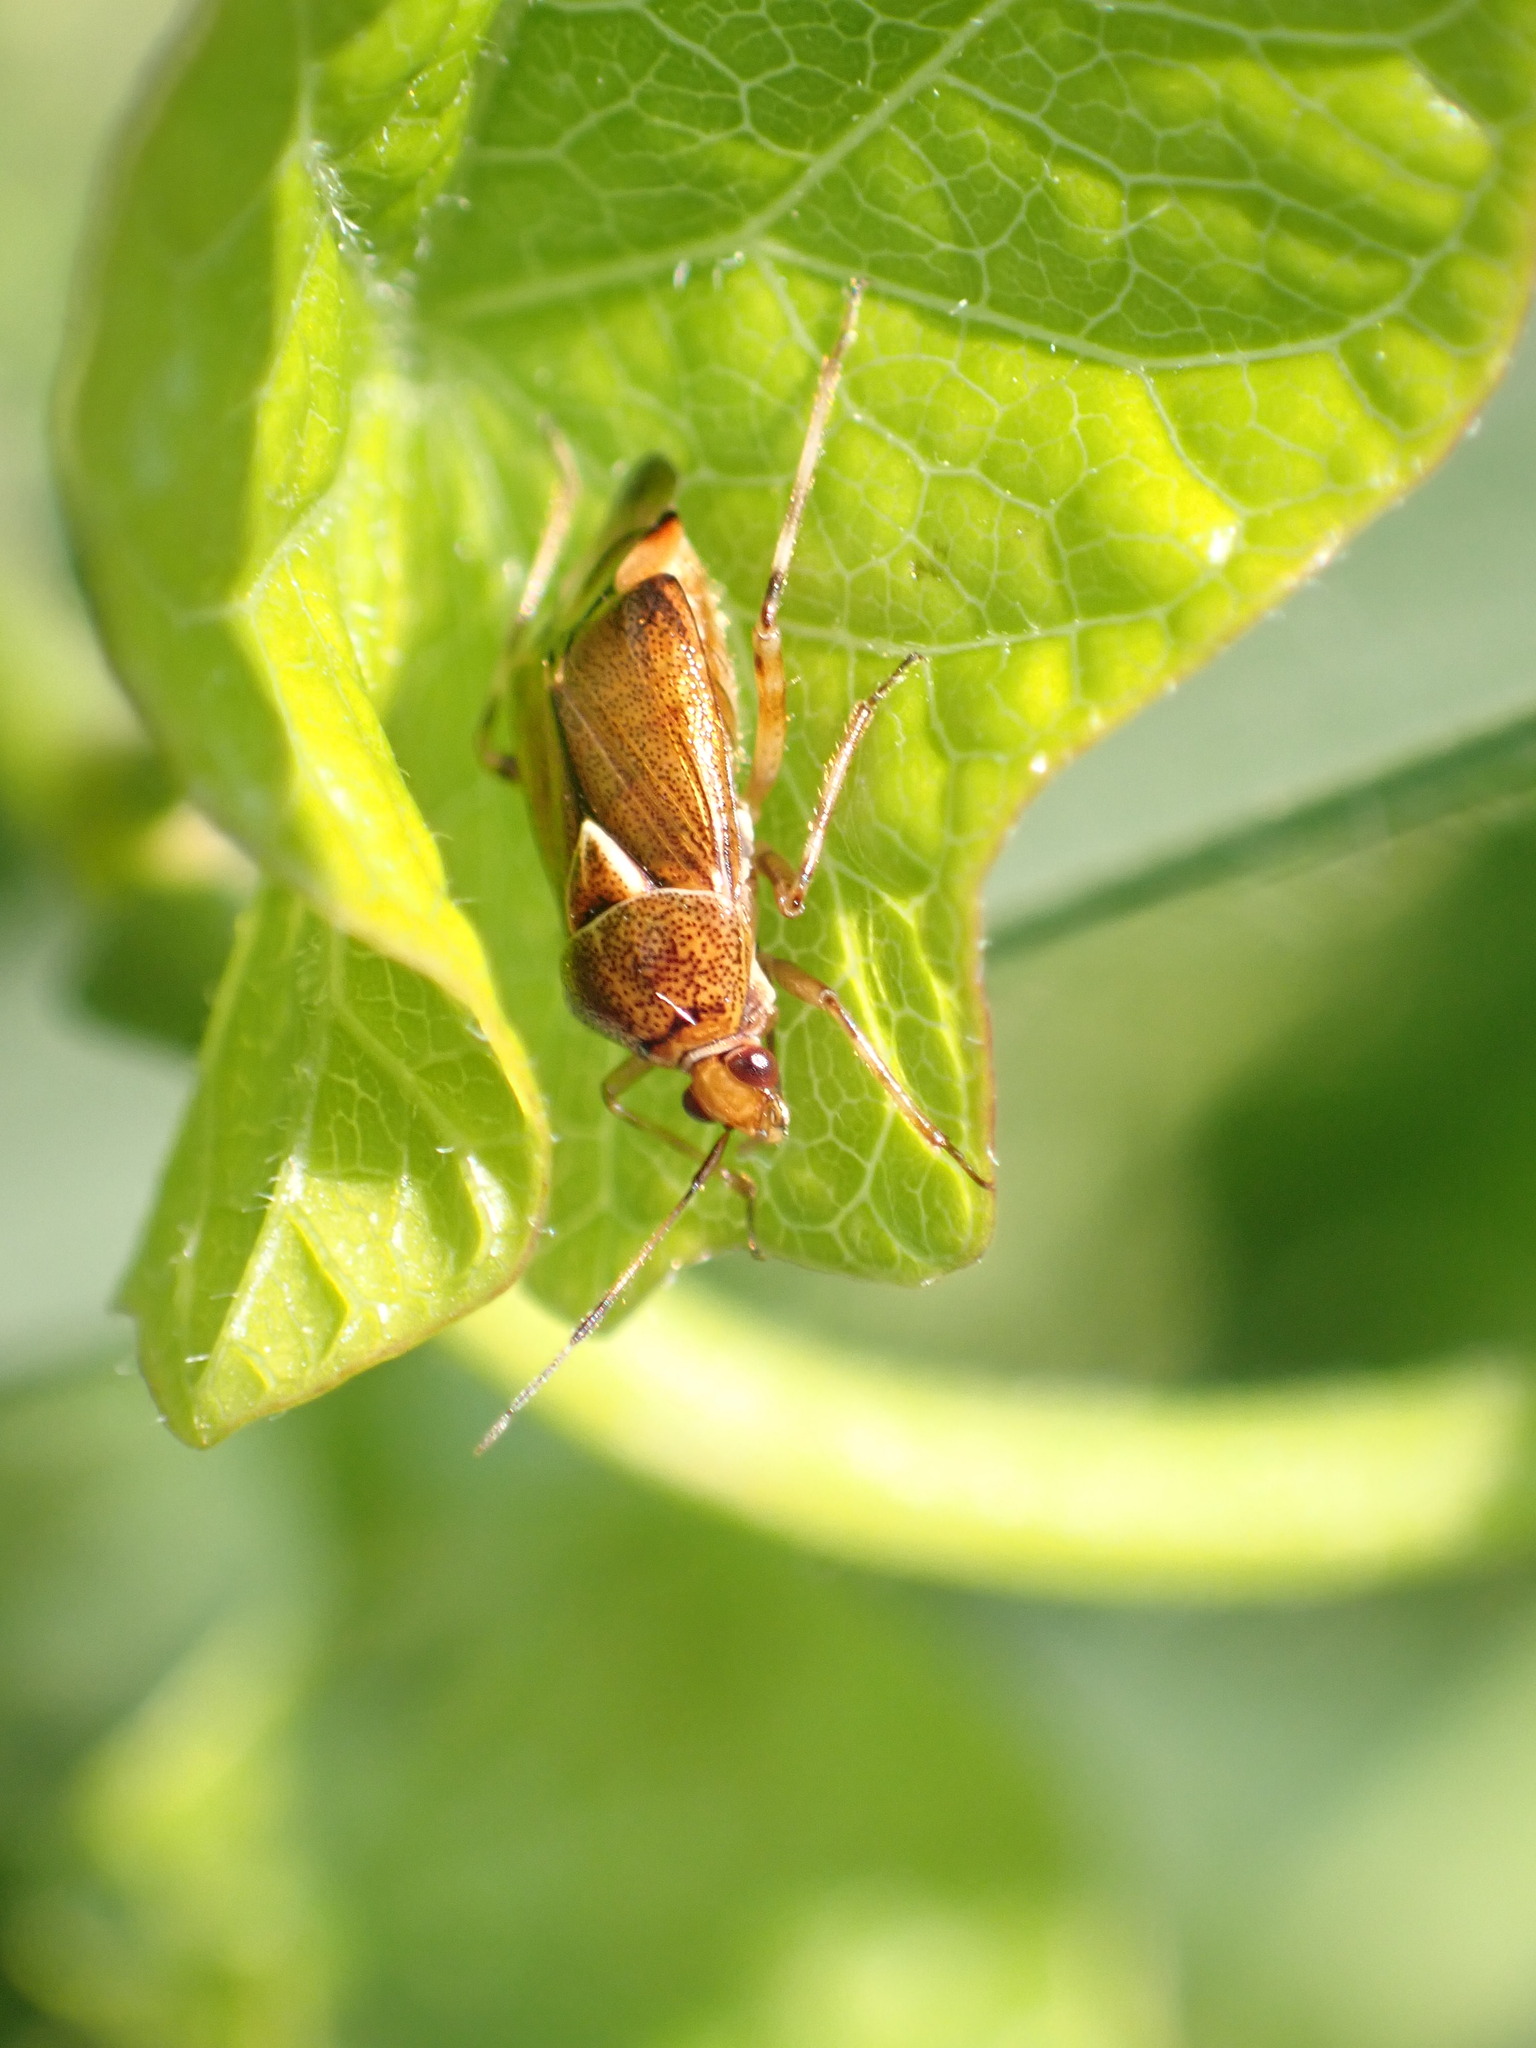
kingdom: Animalia
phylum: Arthropoda
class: Insecta
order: Hemiptera
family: Miridae
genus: Deraeocoris
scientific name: Deraeocoris flavilinea
